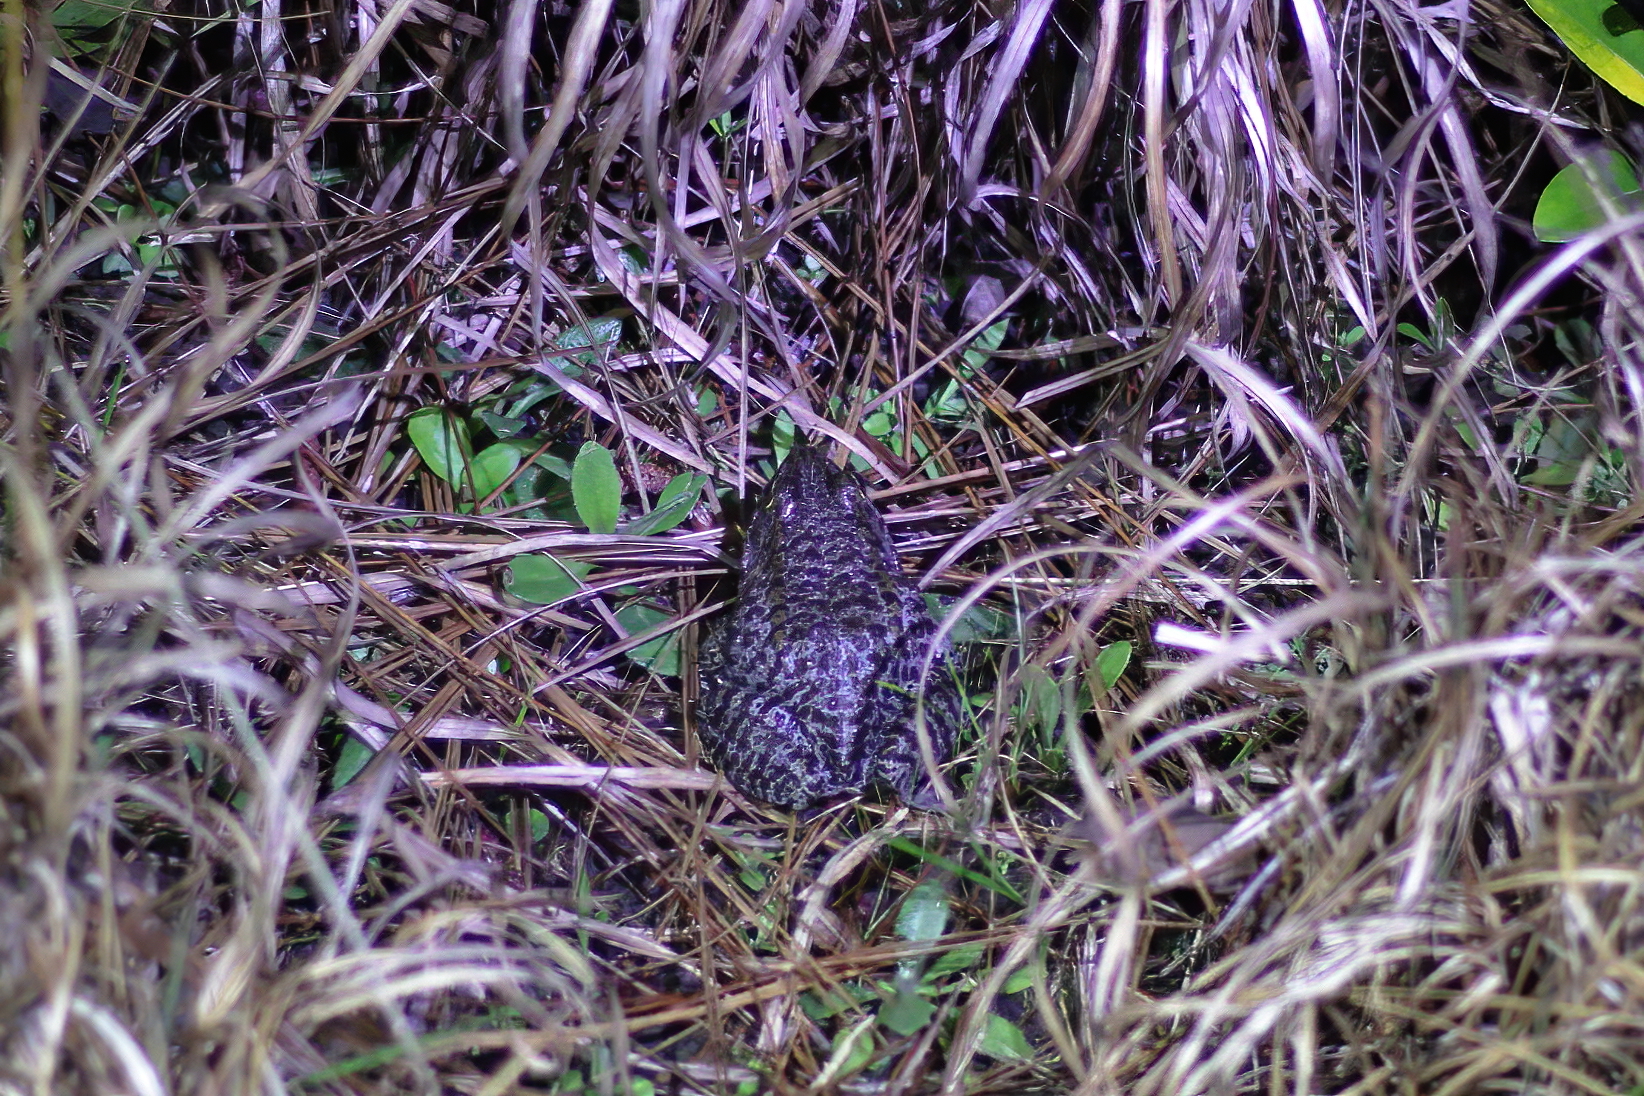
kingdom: Animalia
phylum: Chordata
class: Amphibia
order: Anura
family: Ranidae
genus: Lithobates
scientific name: Lithobates sevosus
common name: Dusky gopher frog
